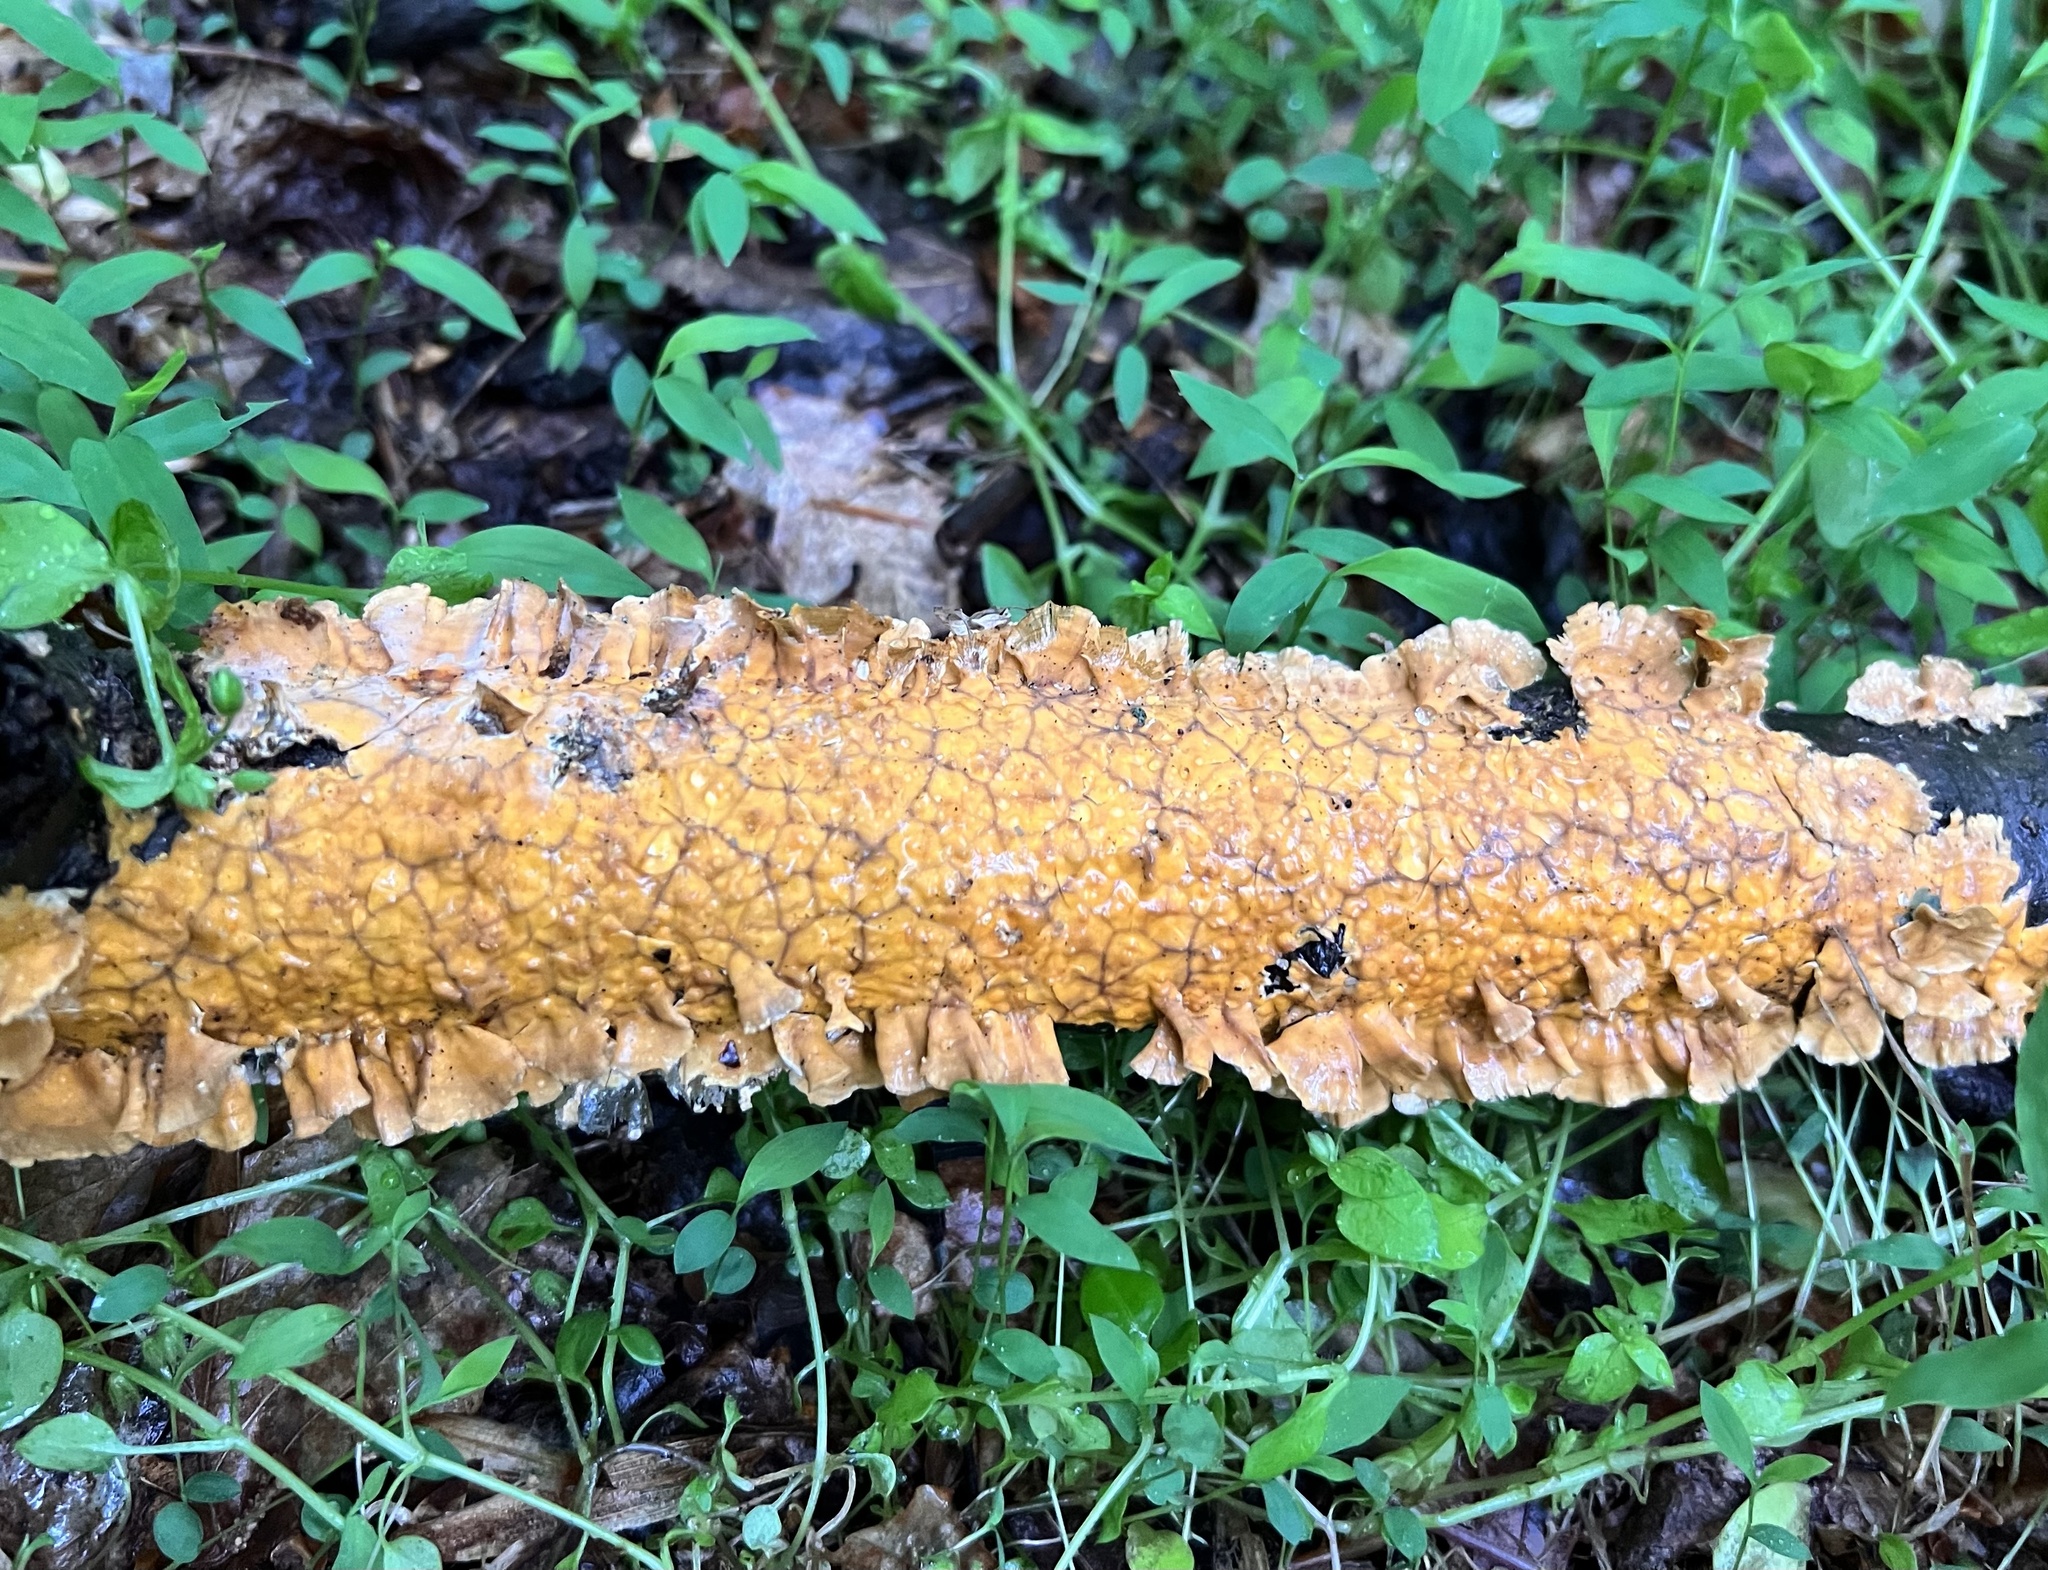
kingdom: Fungi
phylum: Basidiomycota
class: Agaricomycetes
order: Russulales
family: Stereaceae
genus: Stereum
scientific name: Stereum complicatum
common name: Crowded parchment
